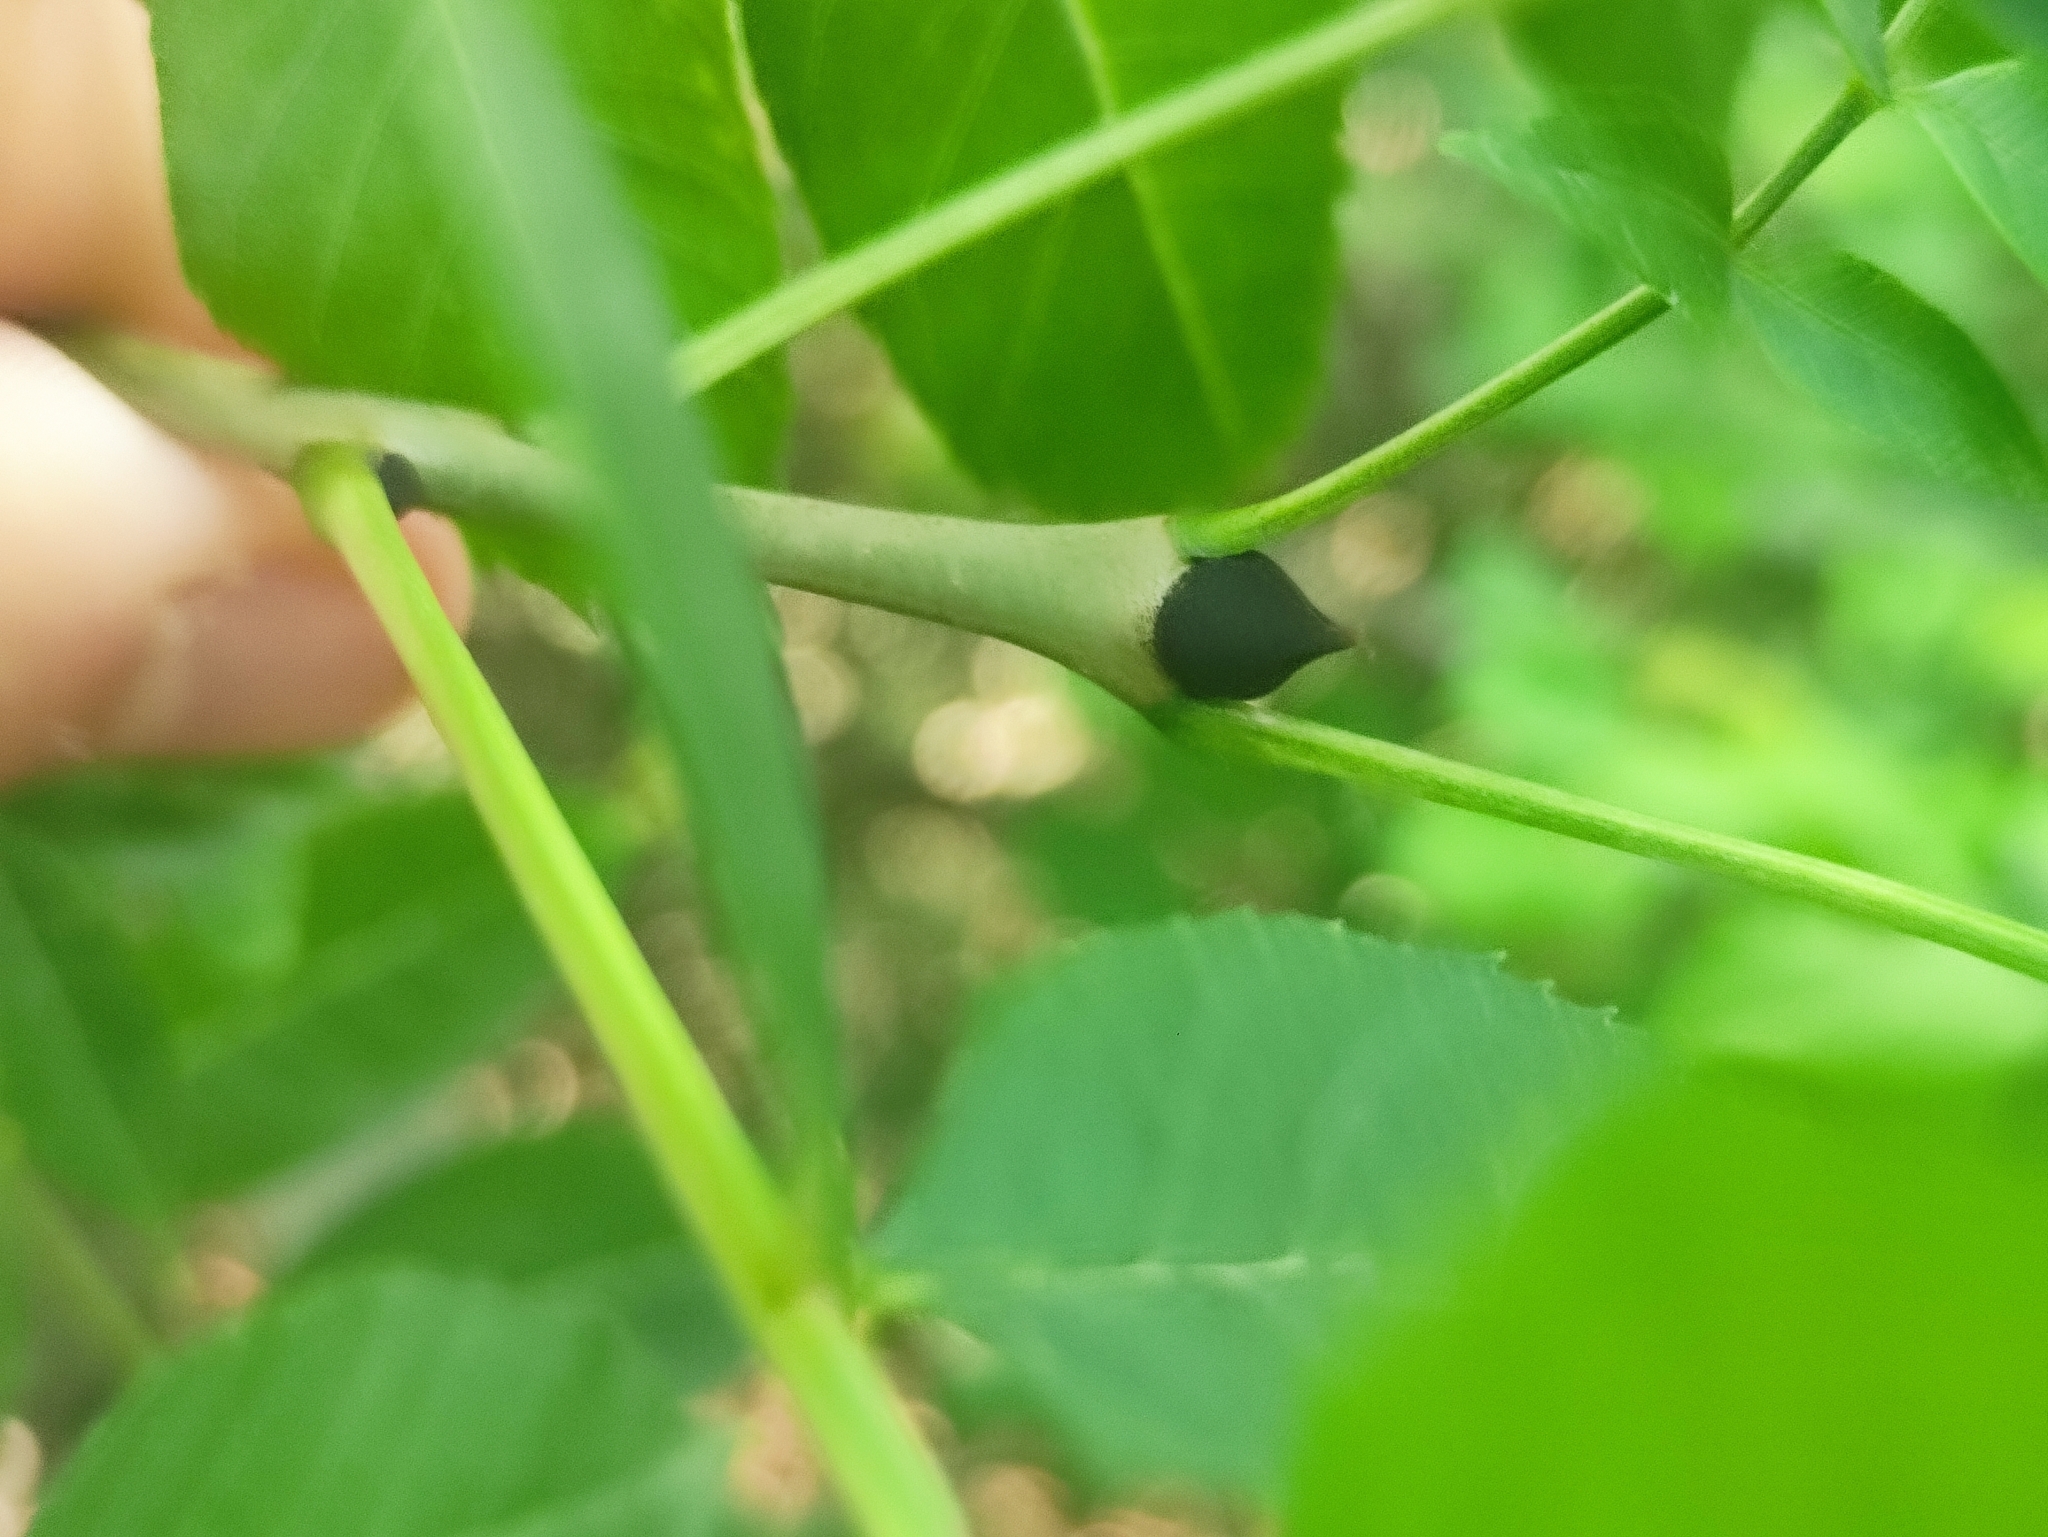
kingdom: Plantae
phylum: Tracheophyta
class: Magnoliopsida
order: Lamiales
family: Oleaceae
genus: Fraxinus
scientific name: Fraxinus excelsior
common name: European ash
